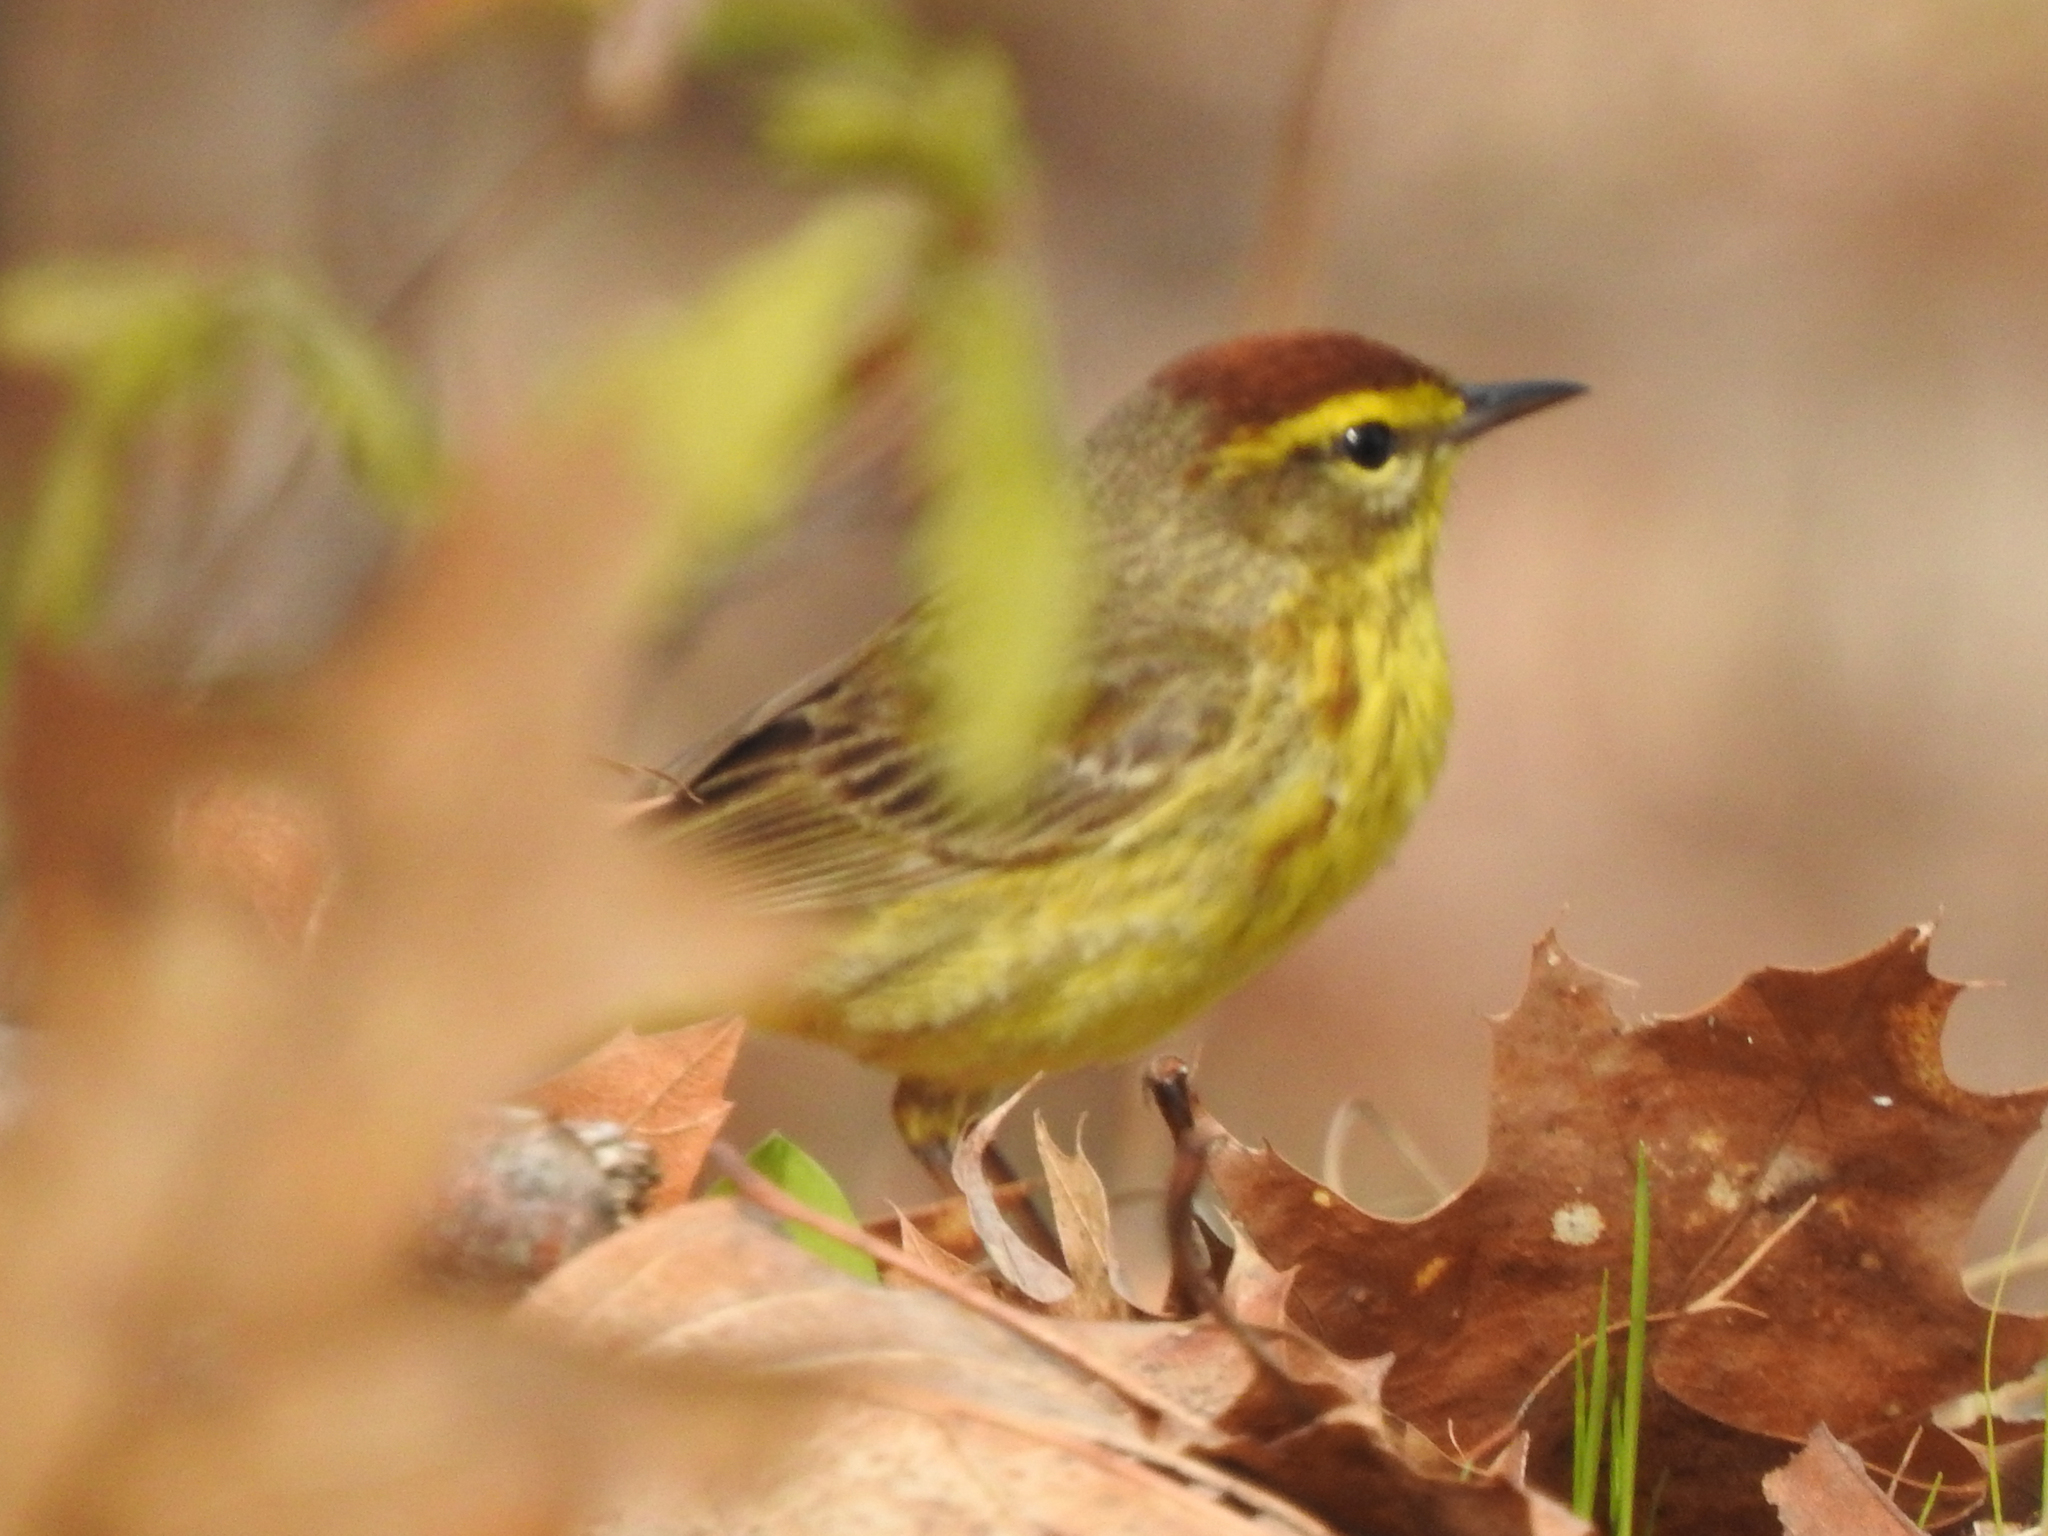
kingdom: Animalia
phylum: Chordata
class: Aves
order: Passeriformes
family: Parulidae
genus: Setophaga
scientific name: Setophaga palmarum
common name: Palm warbler
